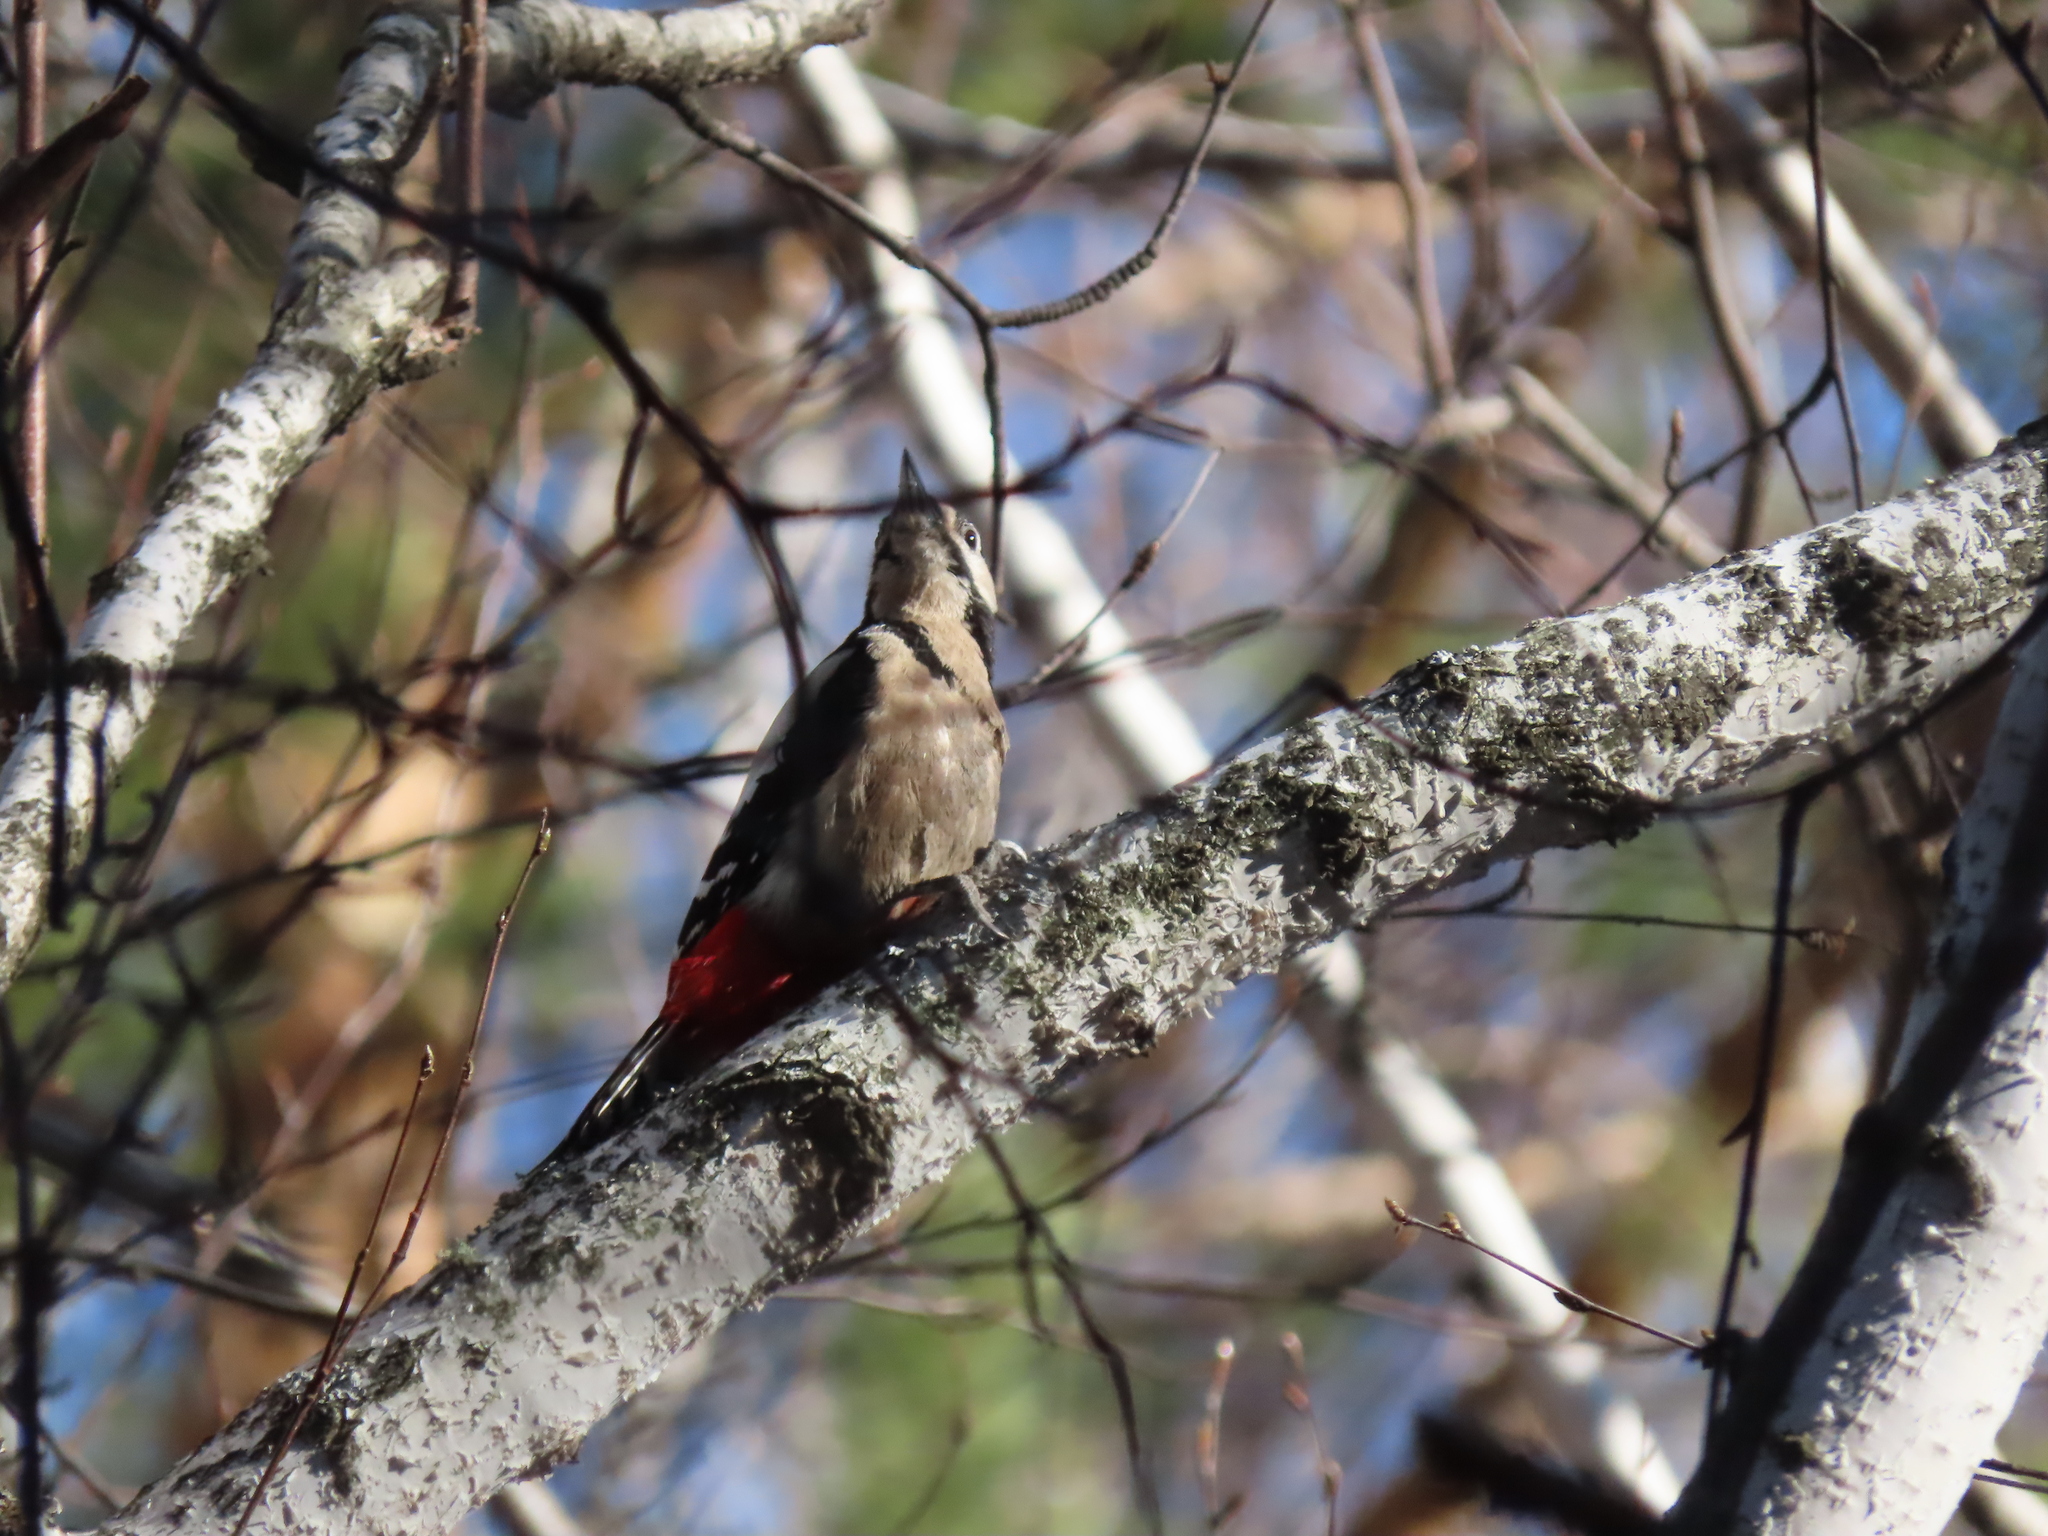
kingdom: Animalia
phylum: Chordata
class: Aves
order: Piciformes
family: Picidae
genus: Dendrocopos
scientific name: Dendrocopos major
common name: Great spotted woodpecker
